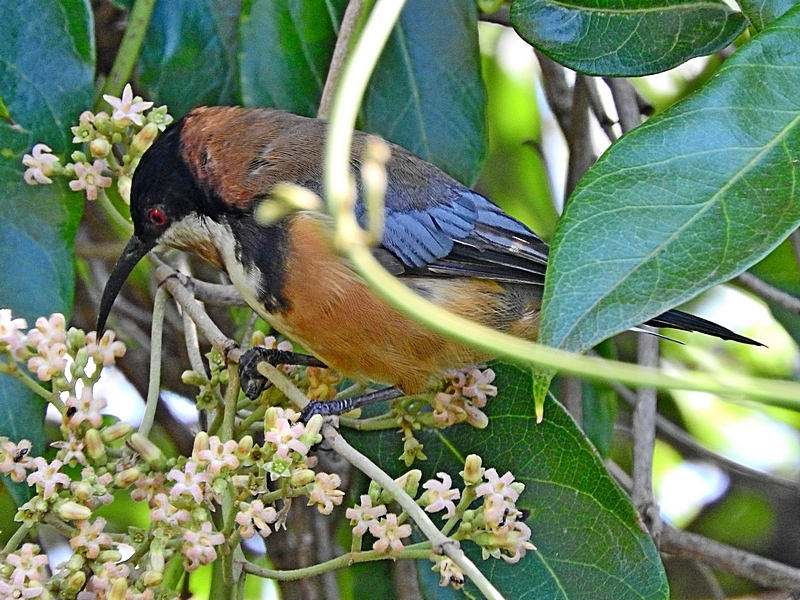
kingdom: Animalia
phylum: Chordata
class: Aves
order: Passeriformes
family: Meliphagidae
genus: Acanthorhynchus
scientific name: Acanthorhynchus tenuirostris
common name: Eastern spinebill
